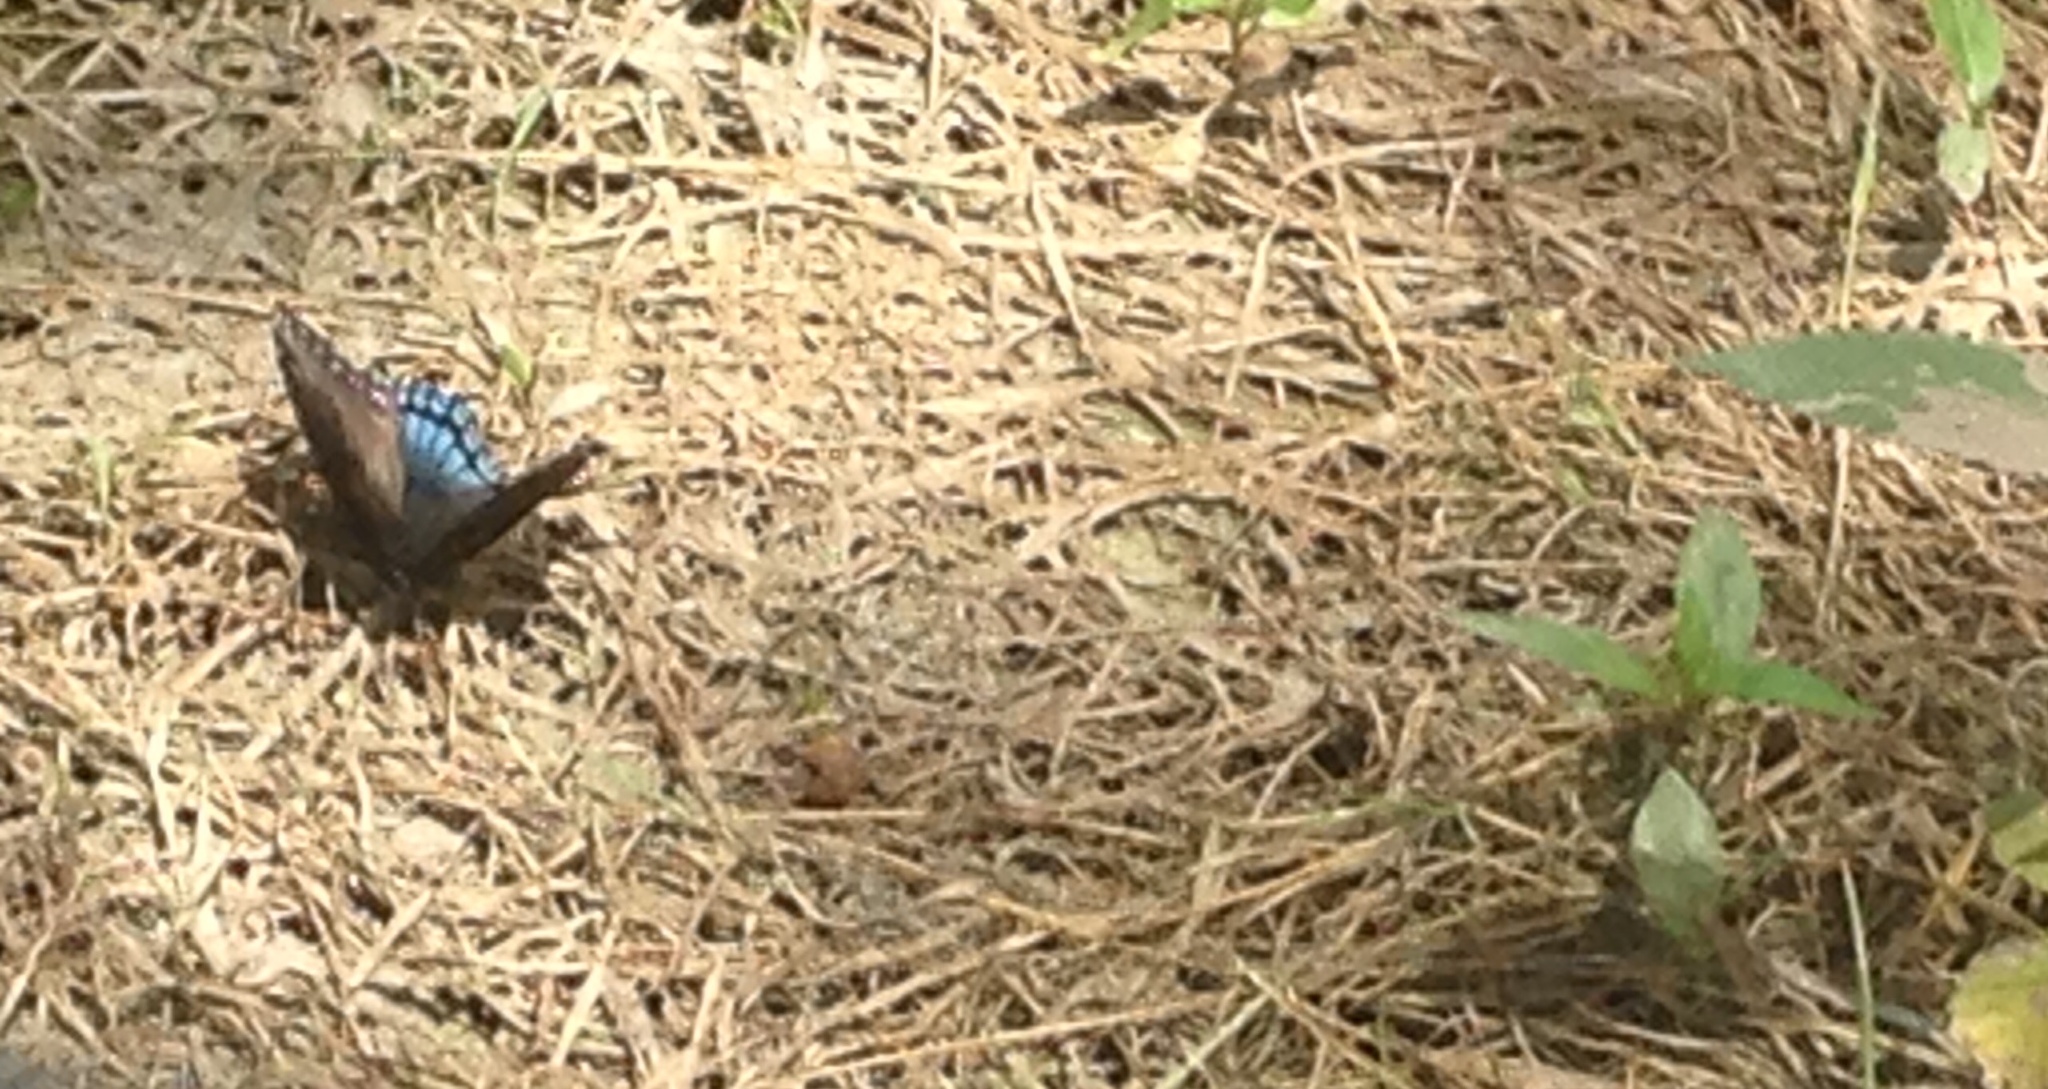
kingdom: Animalia
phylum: Arthropoda
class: Insecta
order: Lepidoptera
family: Hesperiidae
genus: Epargyreus
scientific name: Epargyreus clarus
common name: Silver-spotted skipper
